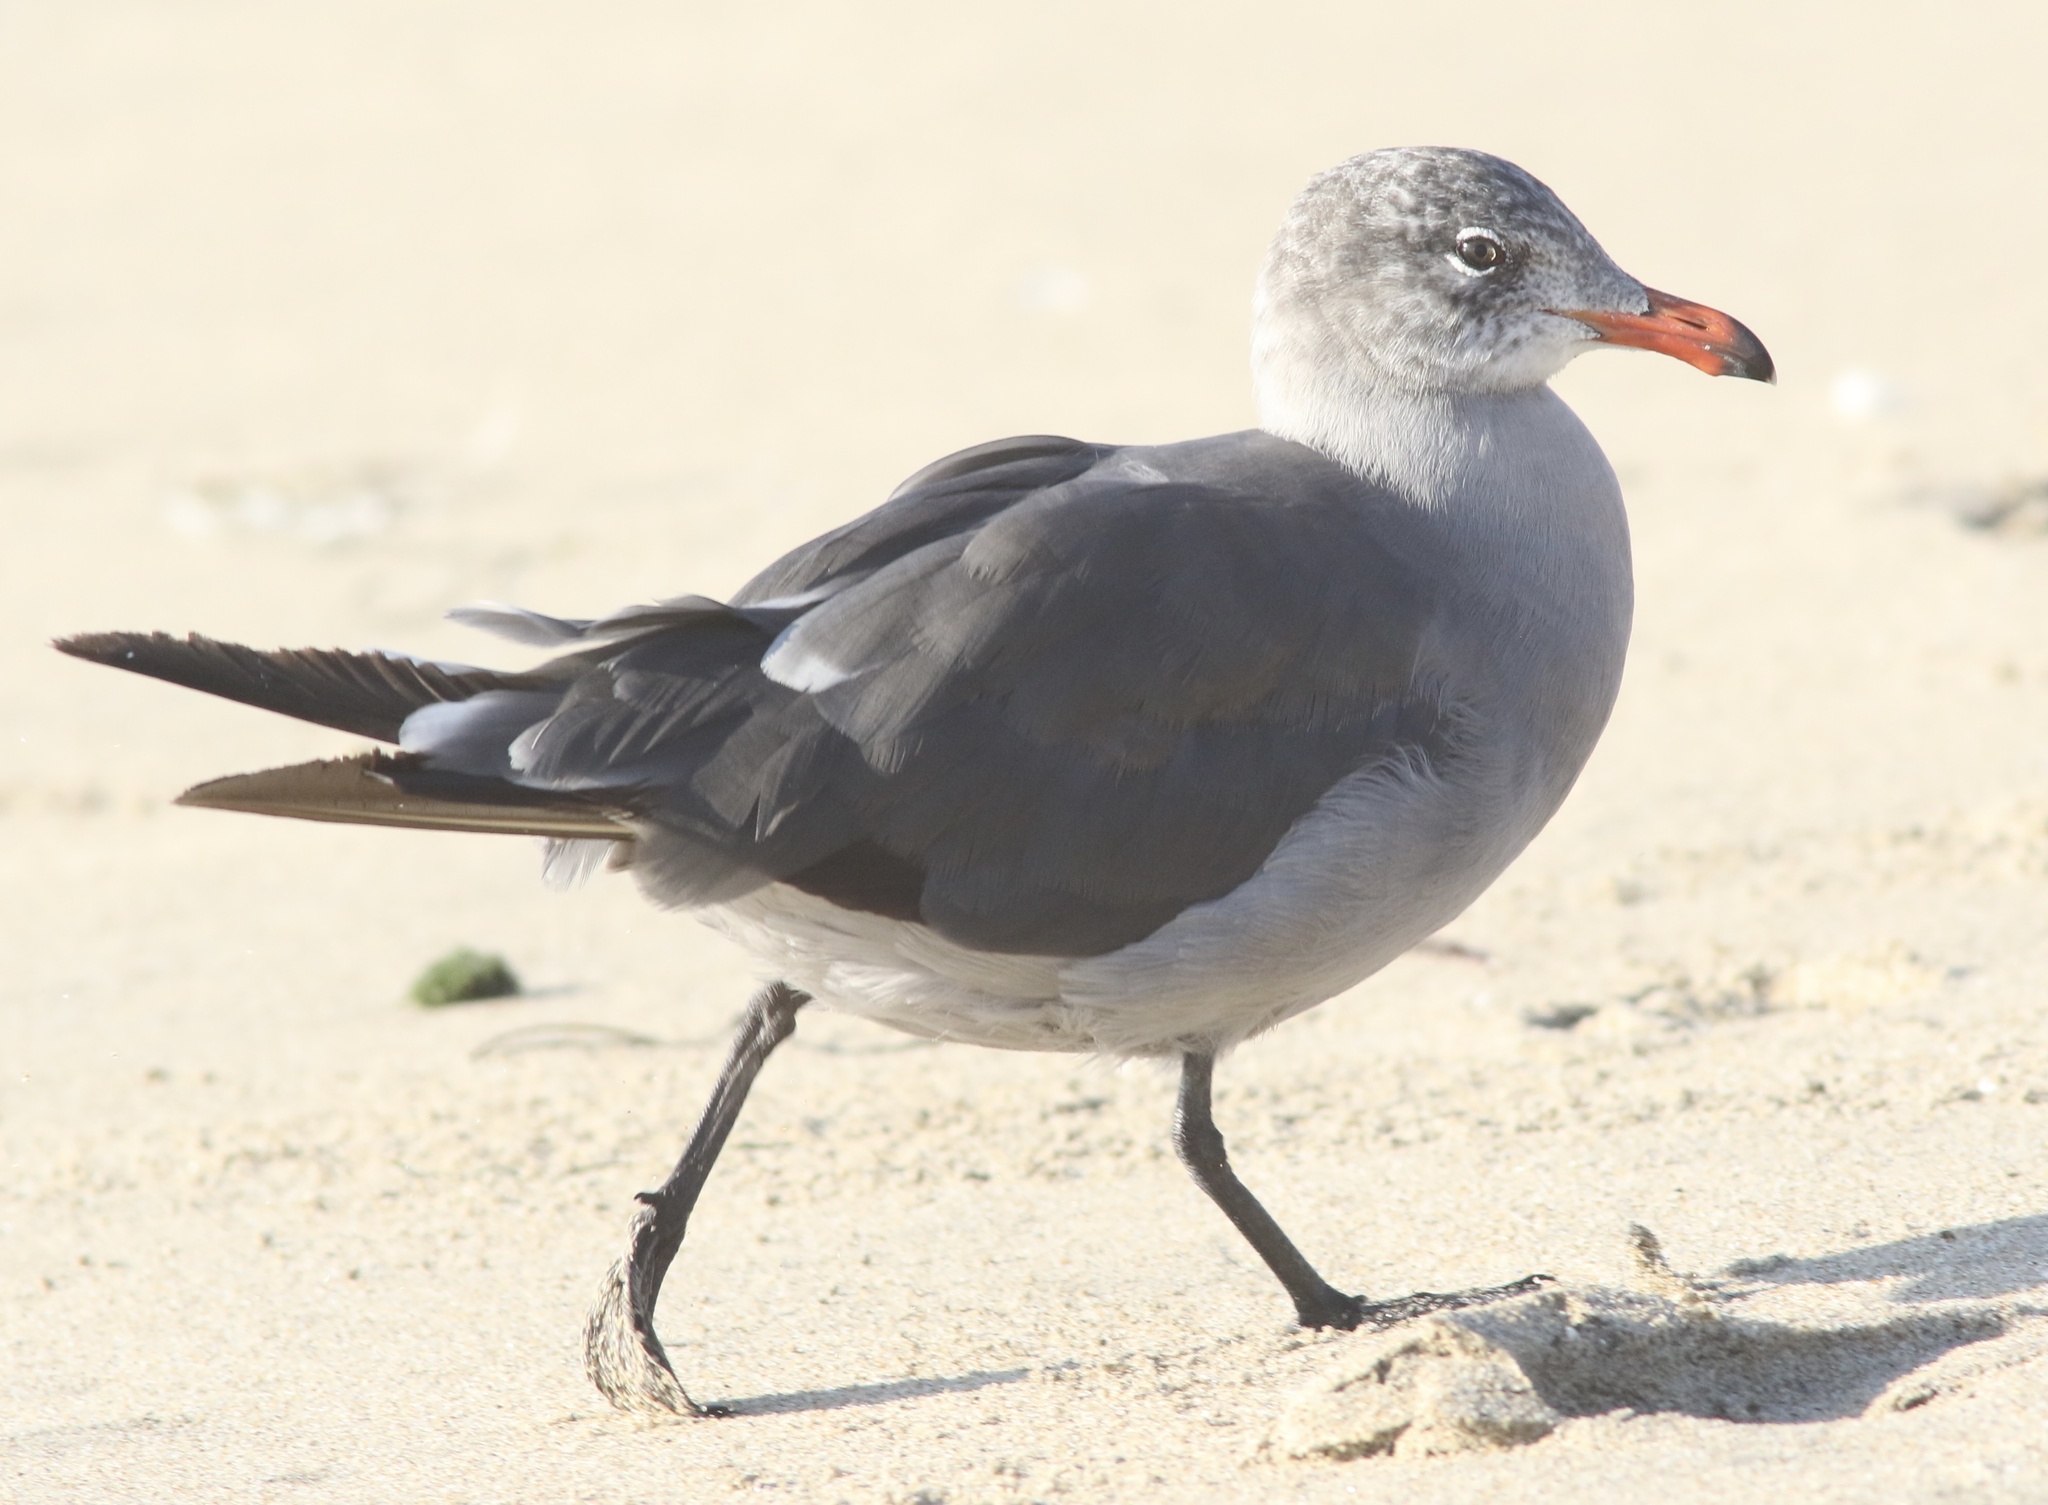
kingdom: Animalia
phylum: Chordata
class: Aves
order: Charadriiformes
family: Laridae
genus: Larus
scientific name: Larus heermanni
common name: Heermann's gull
